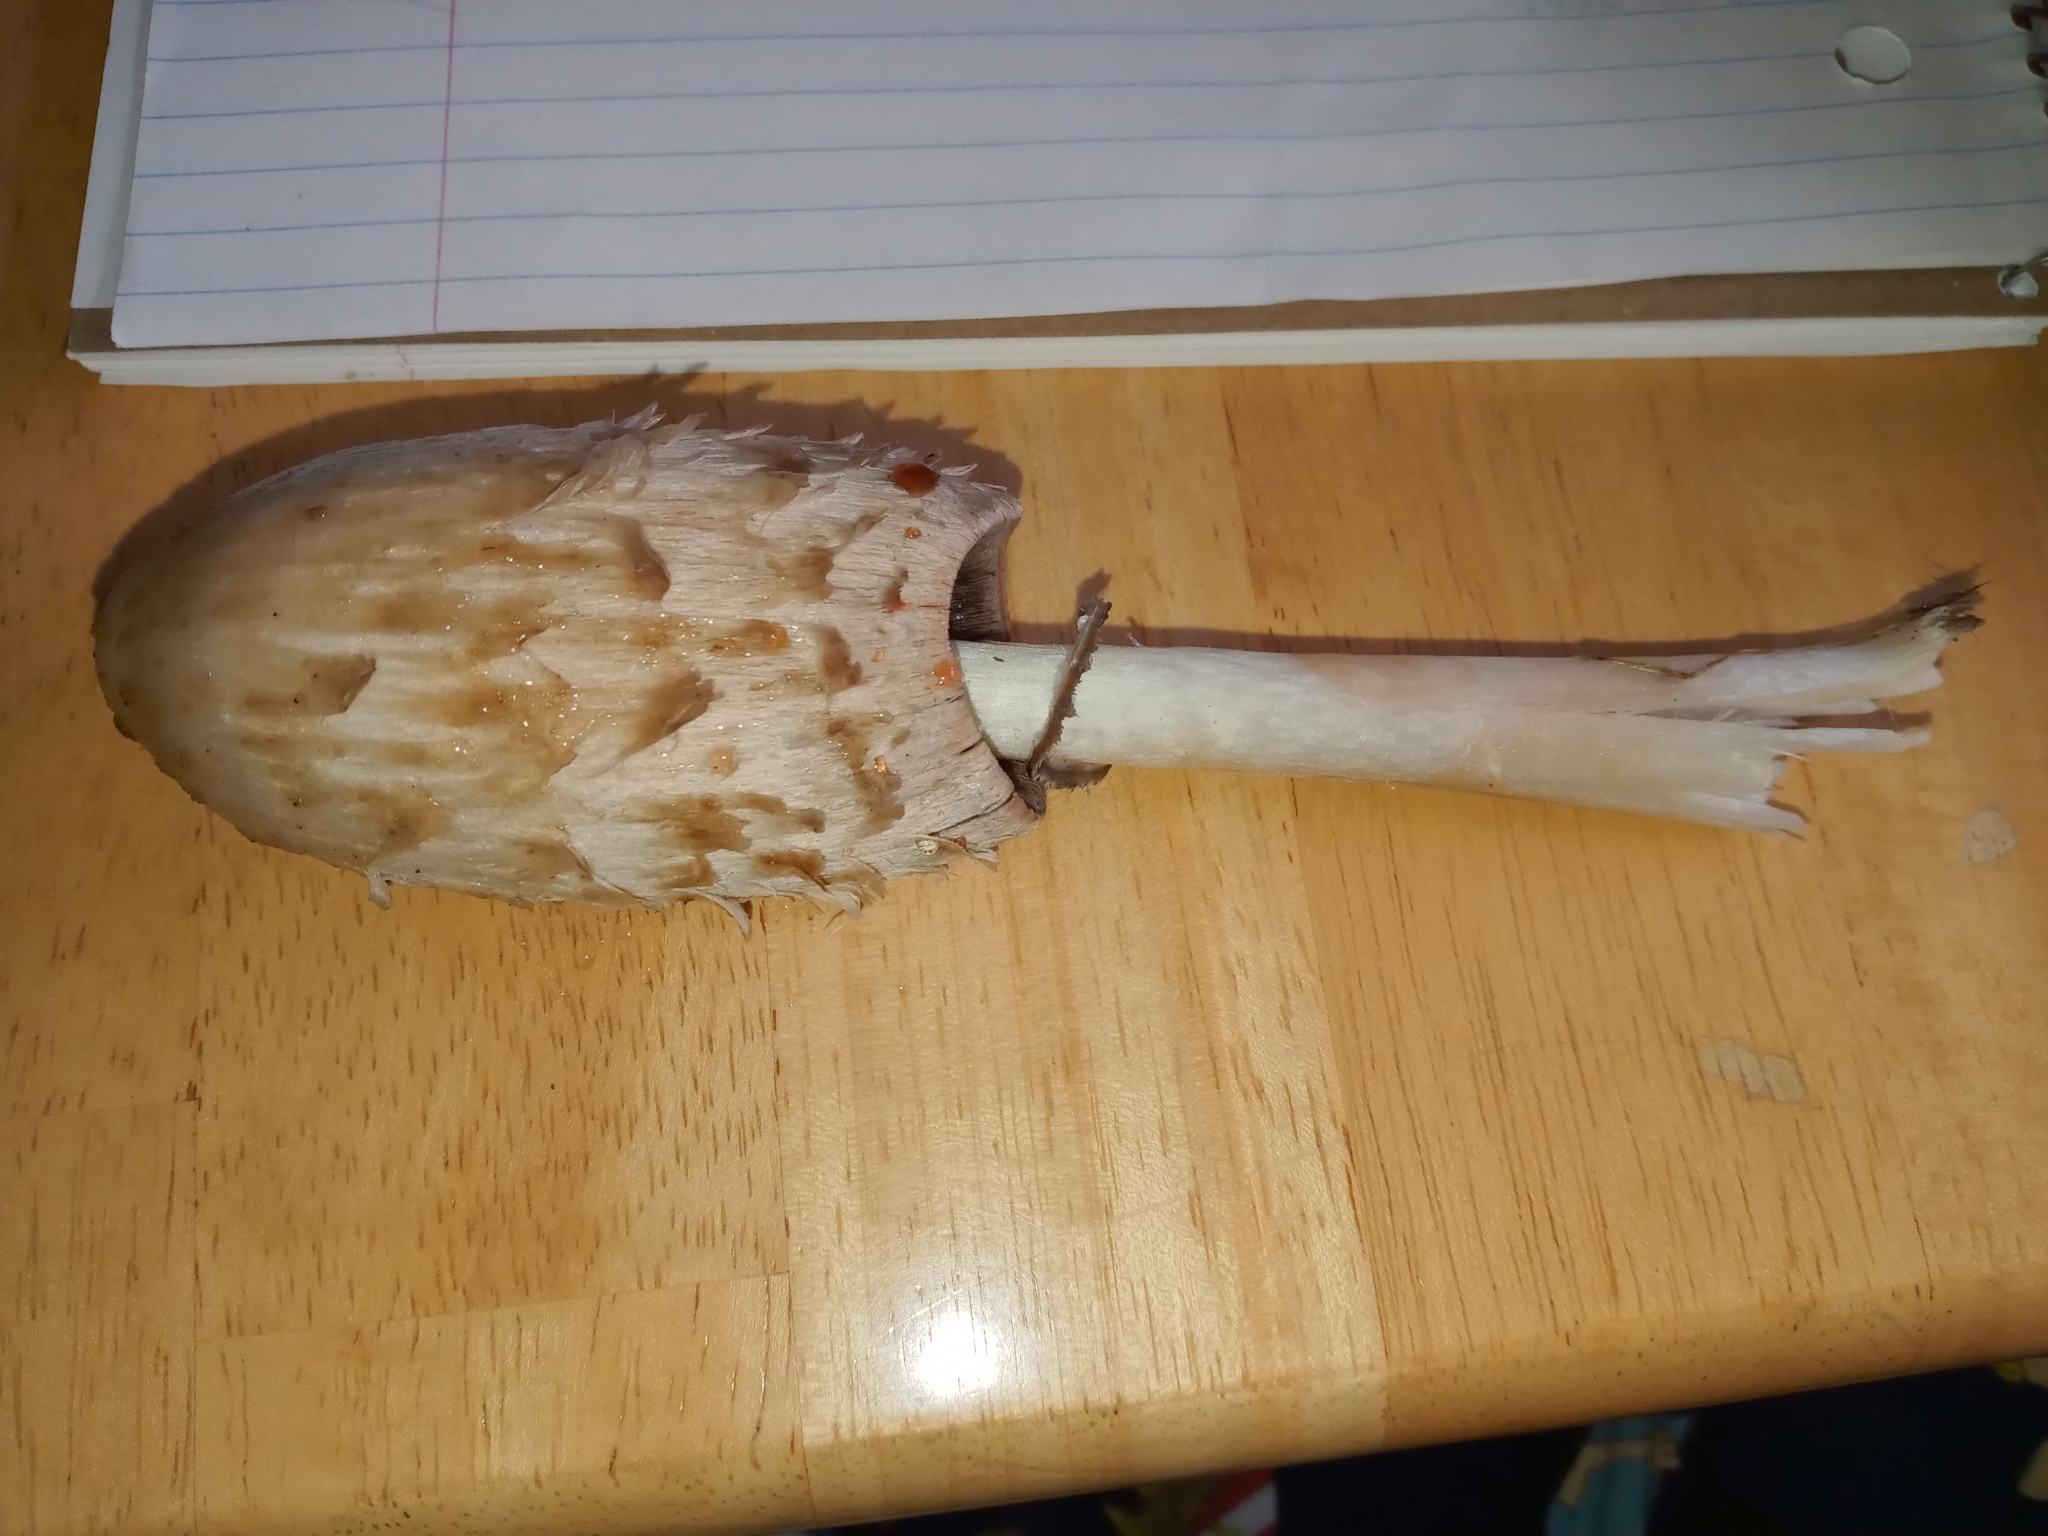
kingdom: Fungi
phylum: Basidiomycota
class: Agaricomycetes
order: Agaricales
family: Agaricaceae
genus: Coprinus
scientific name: Coprinus comatus
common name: Lawyer's wig
